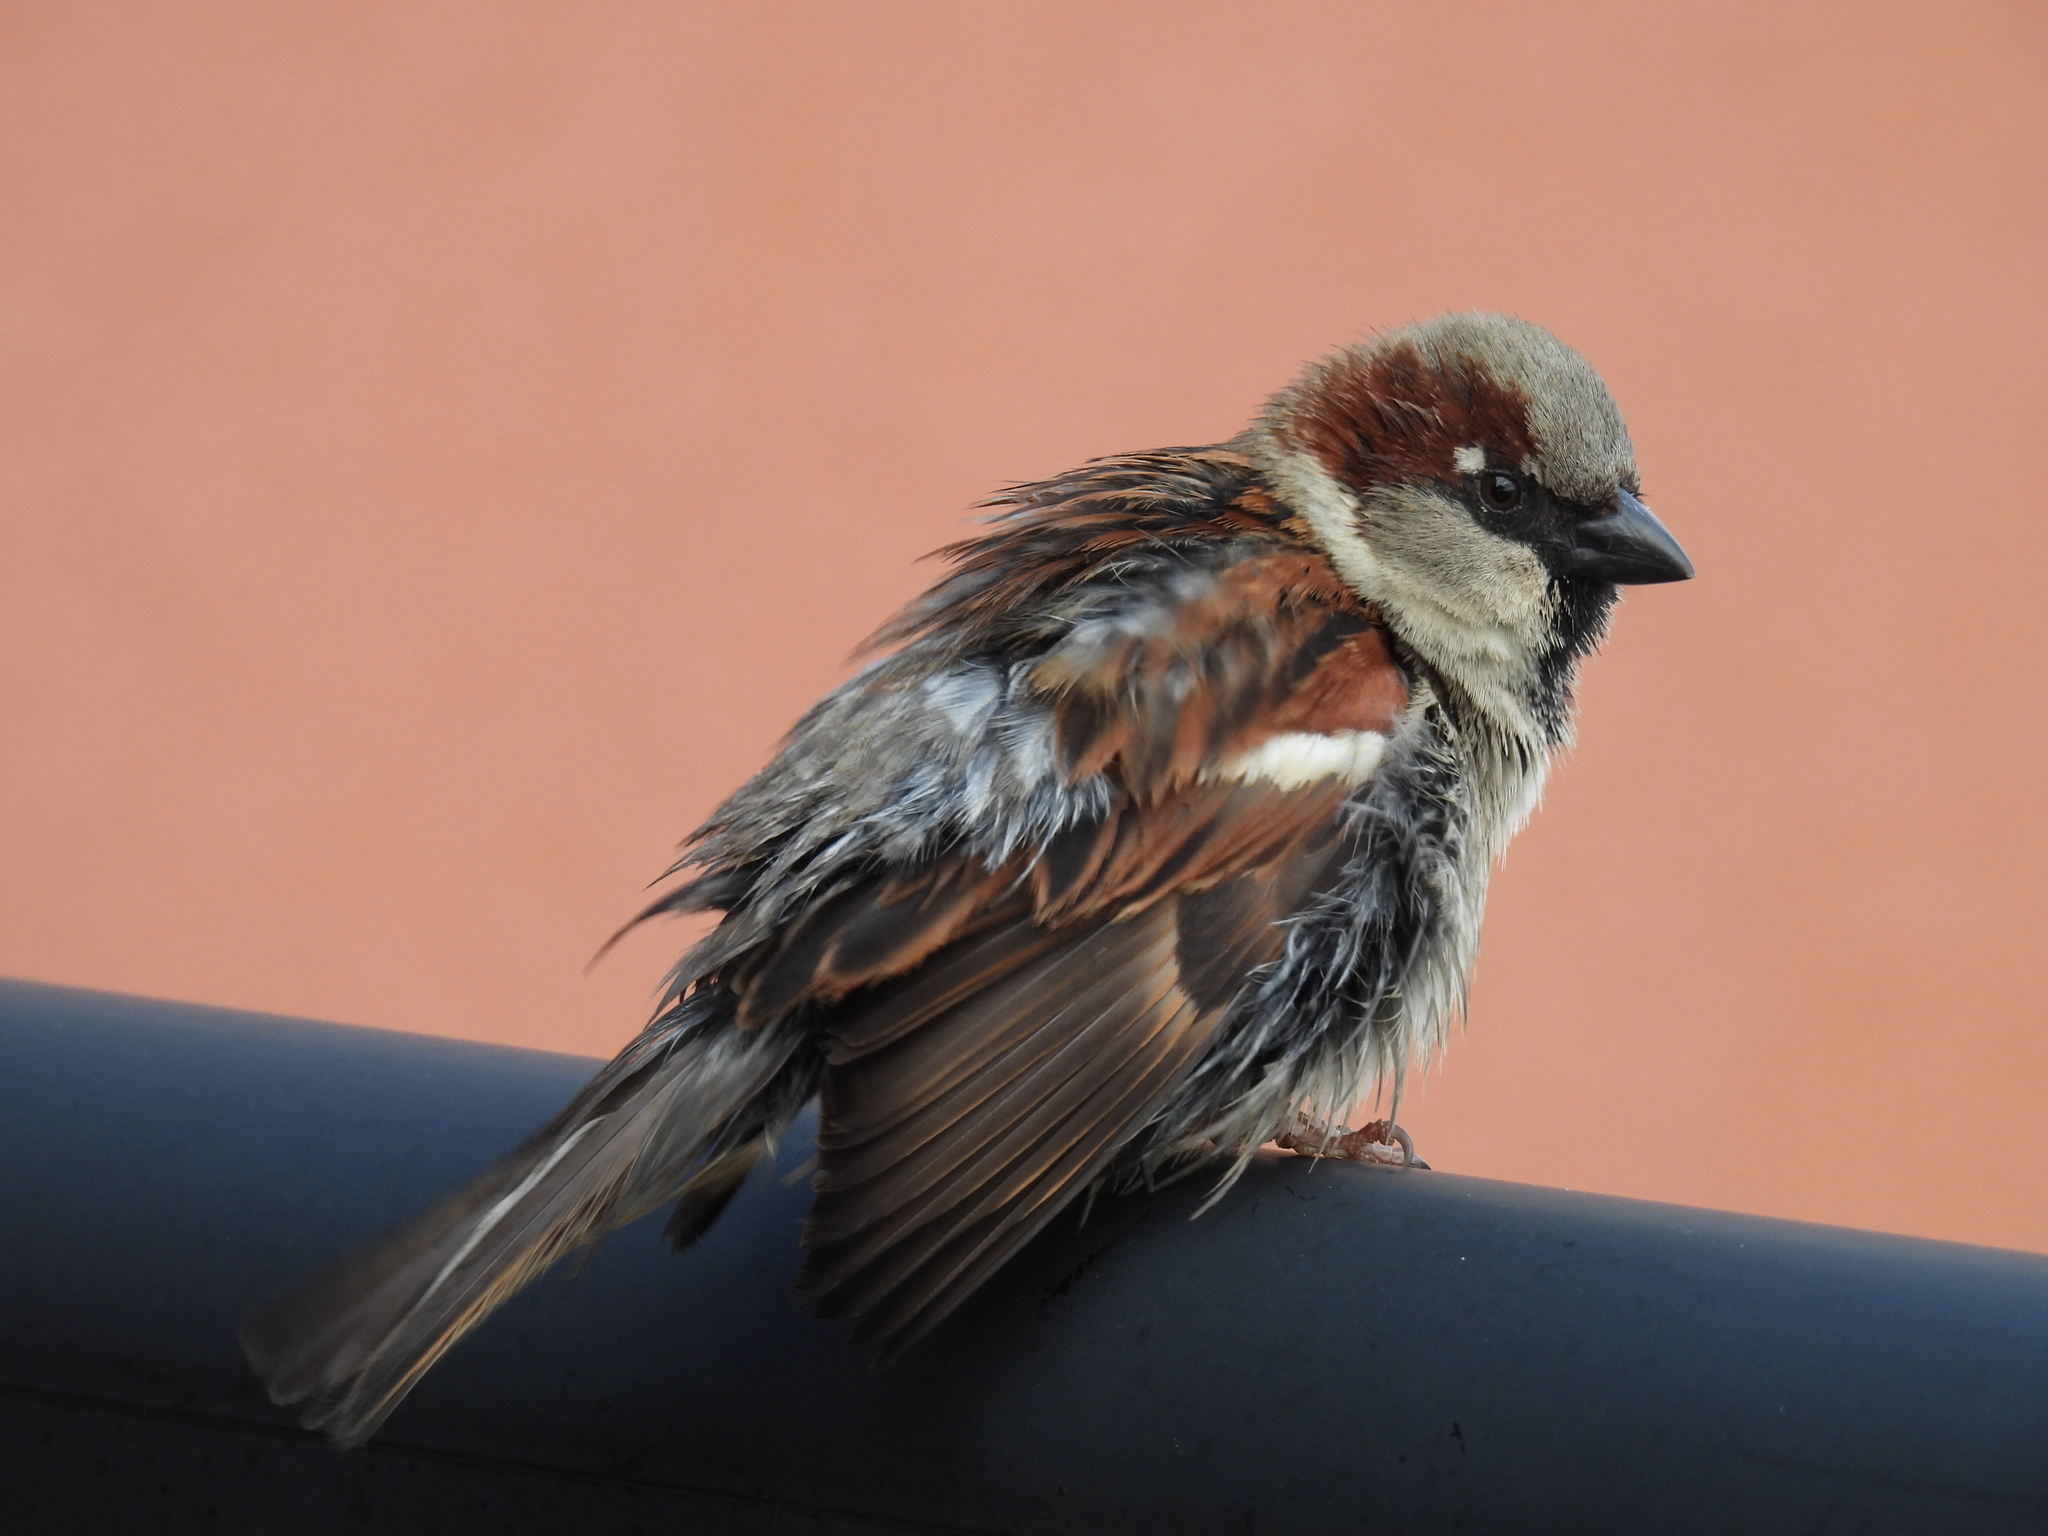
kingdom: Animalia
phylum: Chordata
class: Aves
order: Passeriformes
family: Passeridae
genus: Passer
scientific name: Passer domesticus
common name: House sparrow
